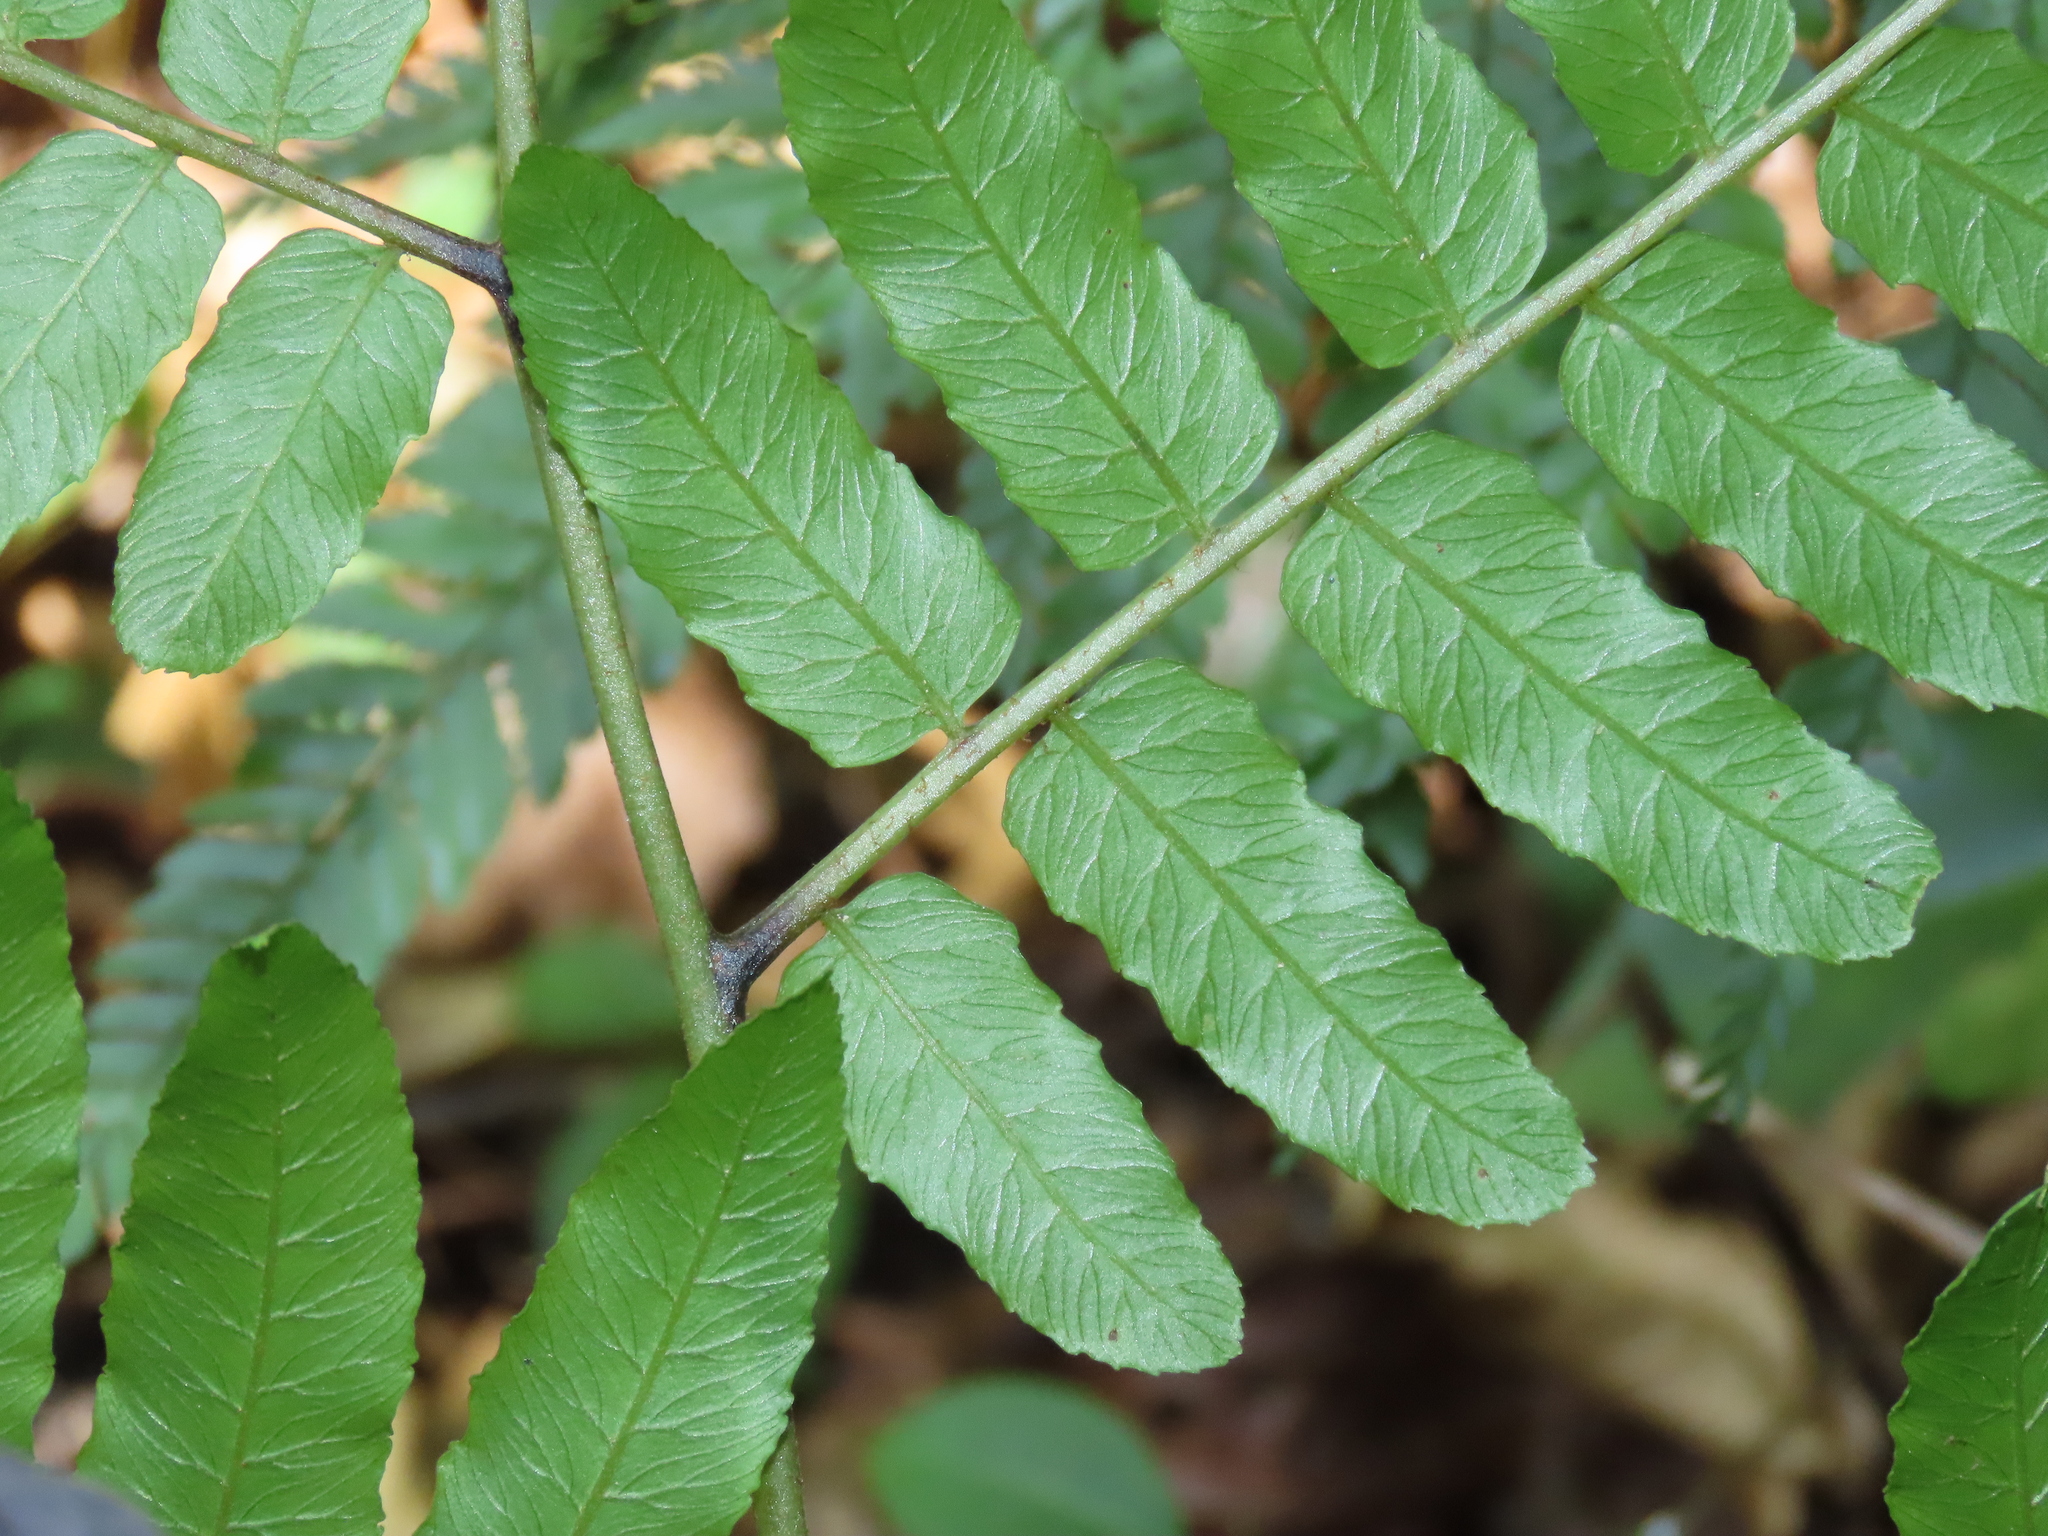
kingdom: Plantae
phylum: Tracheophyta
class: Polypodiopsida
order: Polypodiales
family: Athyriaceae
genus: Diplazium
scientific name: Diplazium dilatatum
